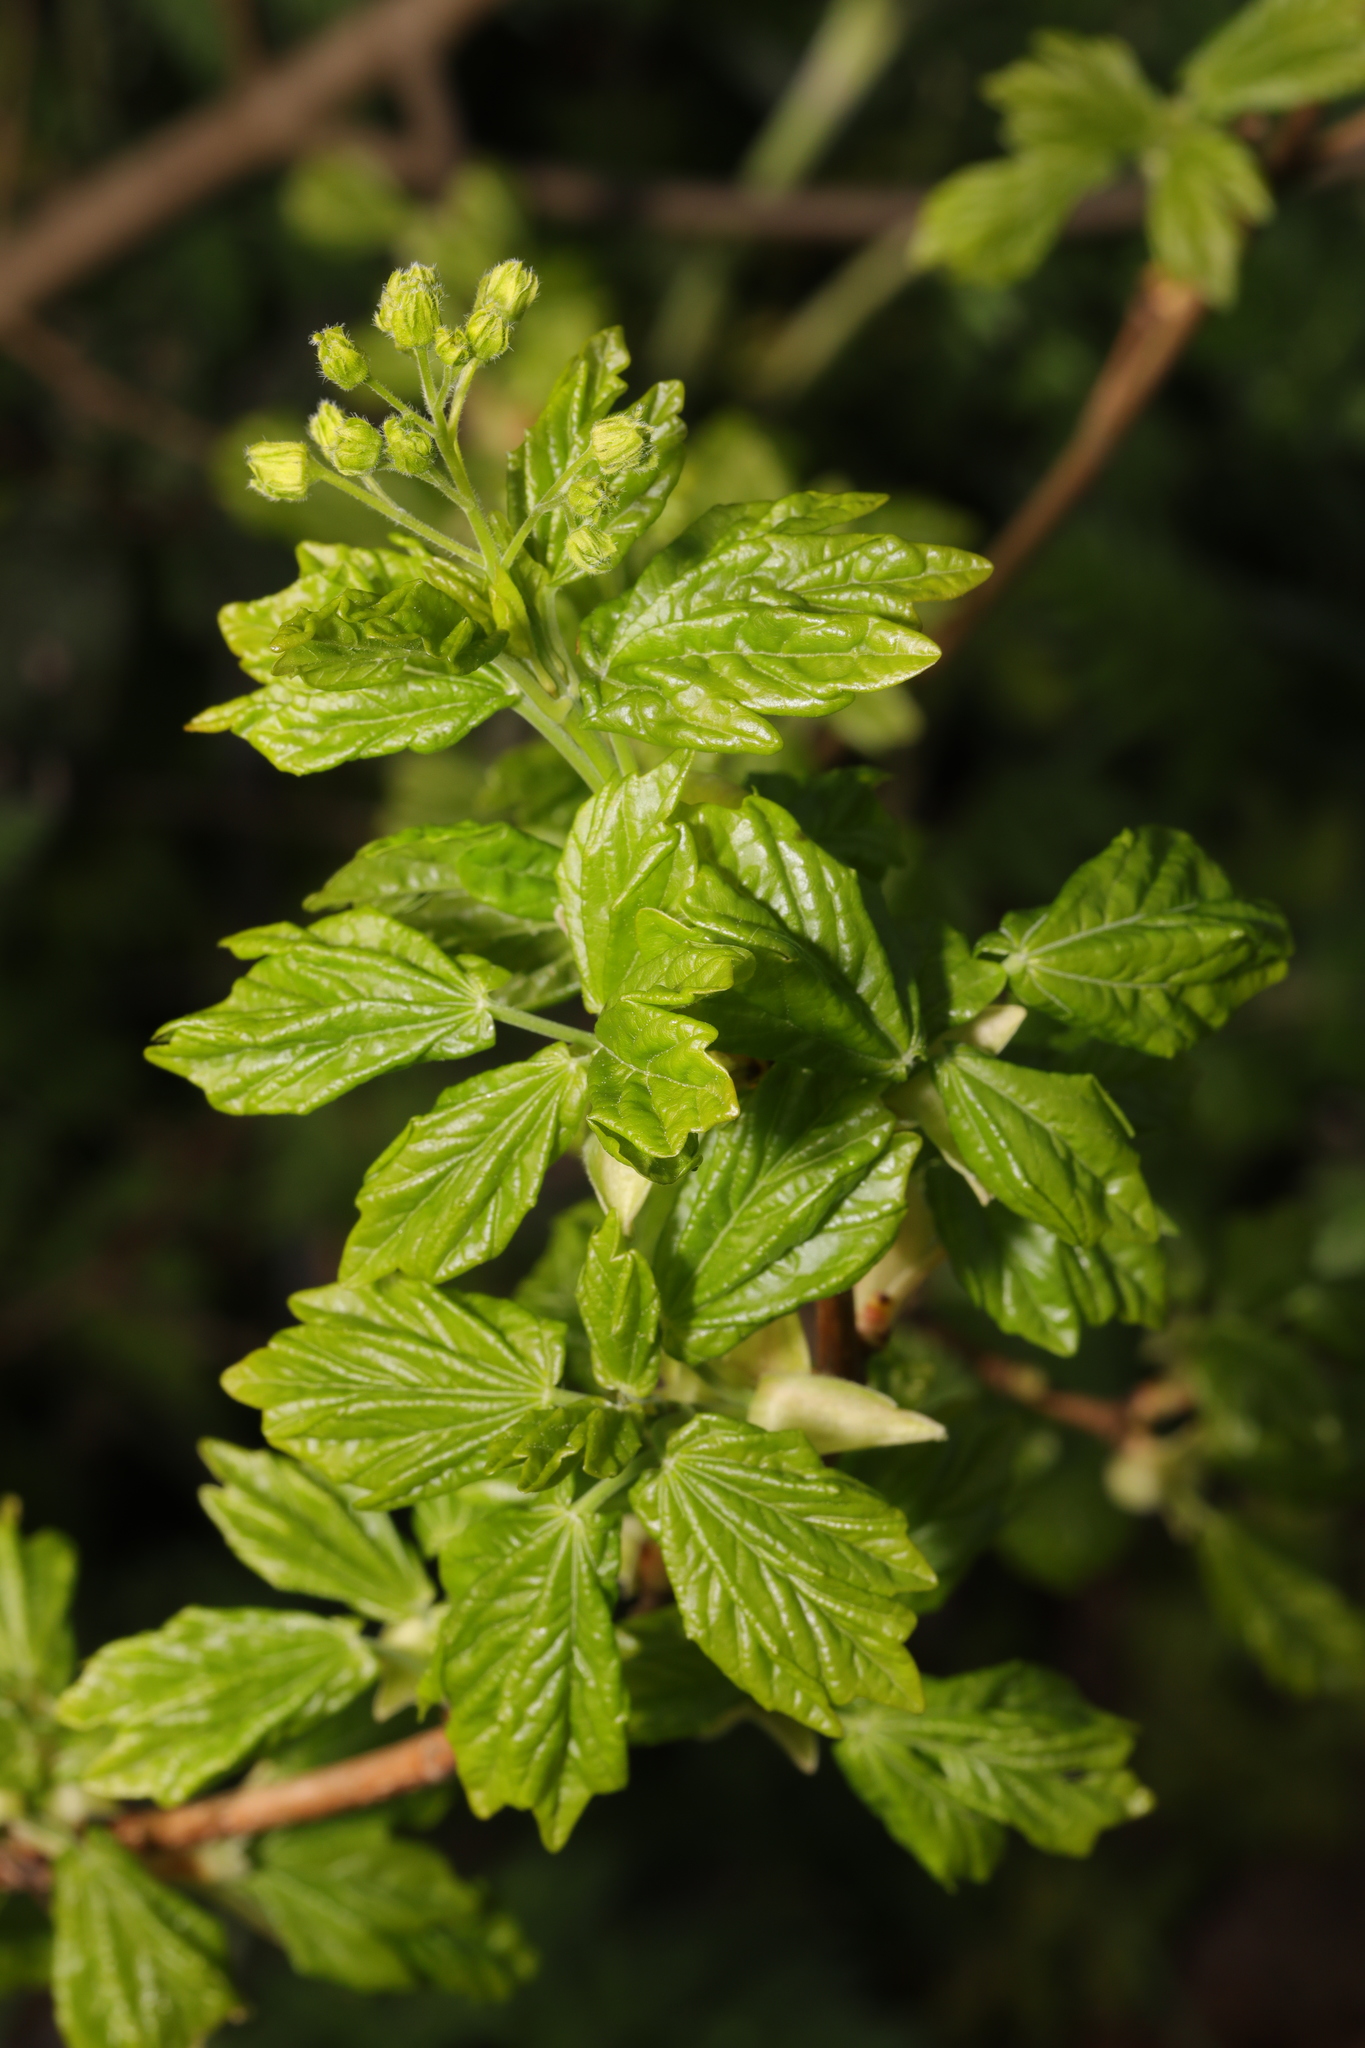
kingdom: Plantae
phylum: Tracheophyta
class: Magnoliopsida
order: Sapindales
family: Sapindaceae
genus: Acer
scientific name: Acer campestre
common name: Field maple
